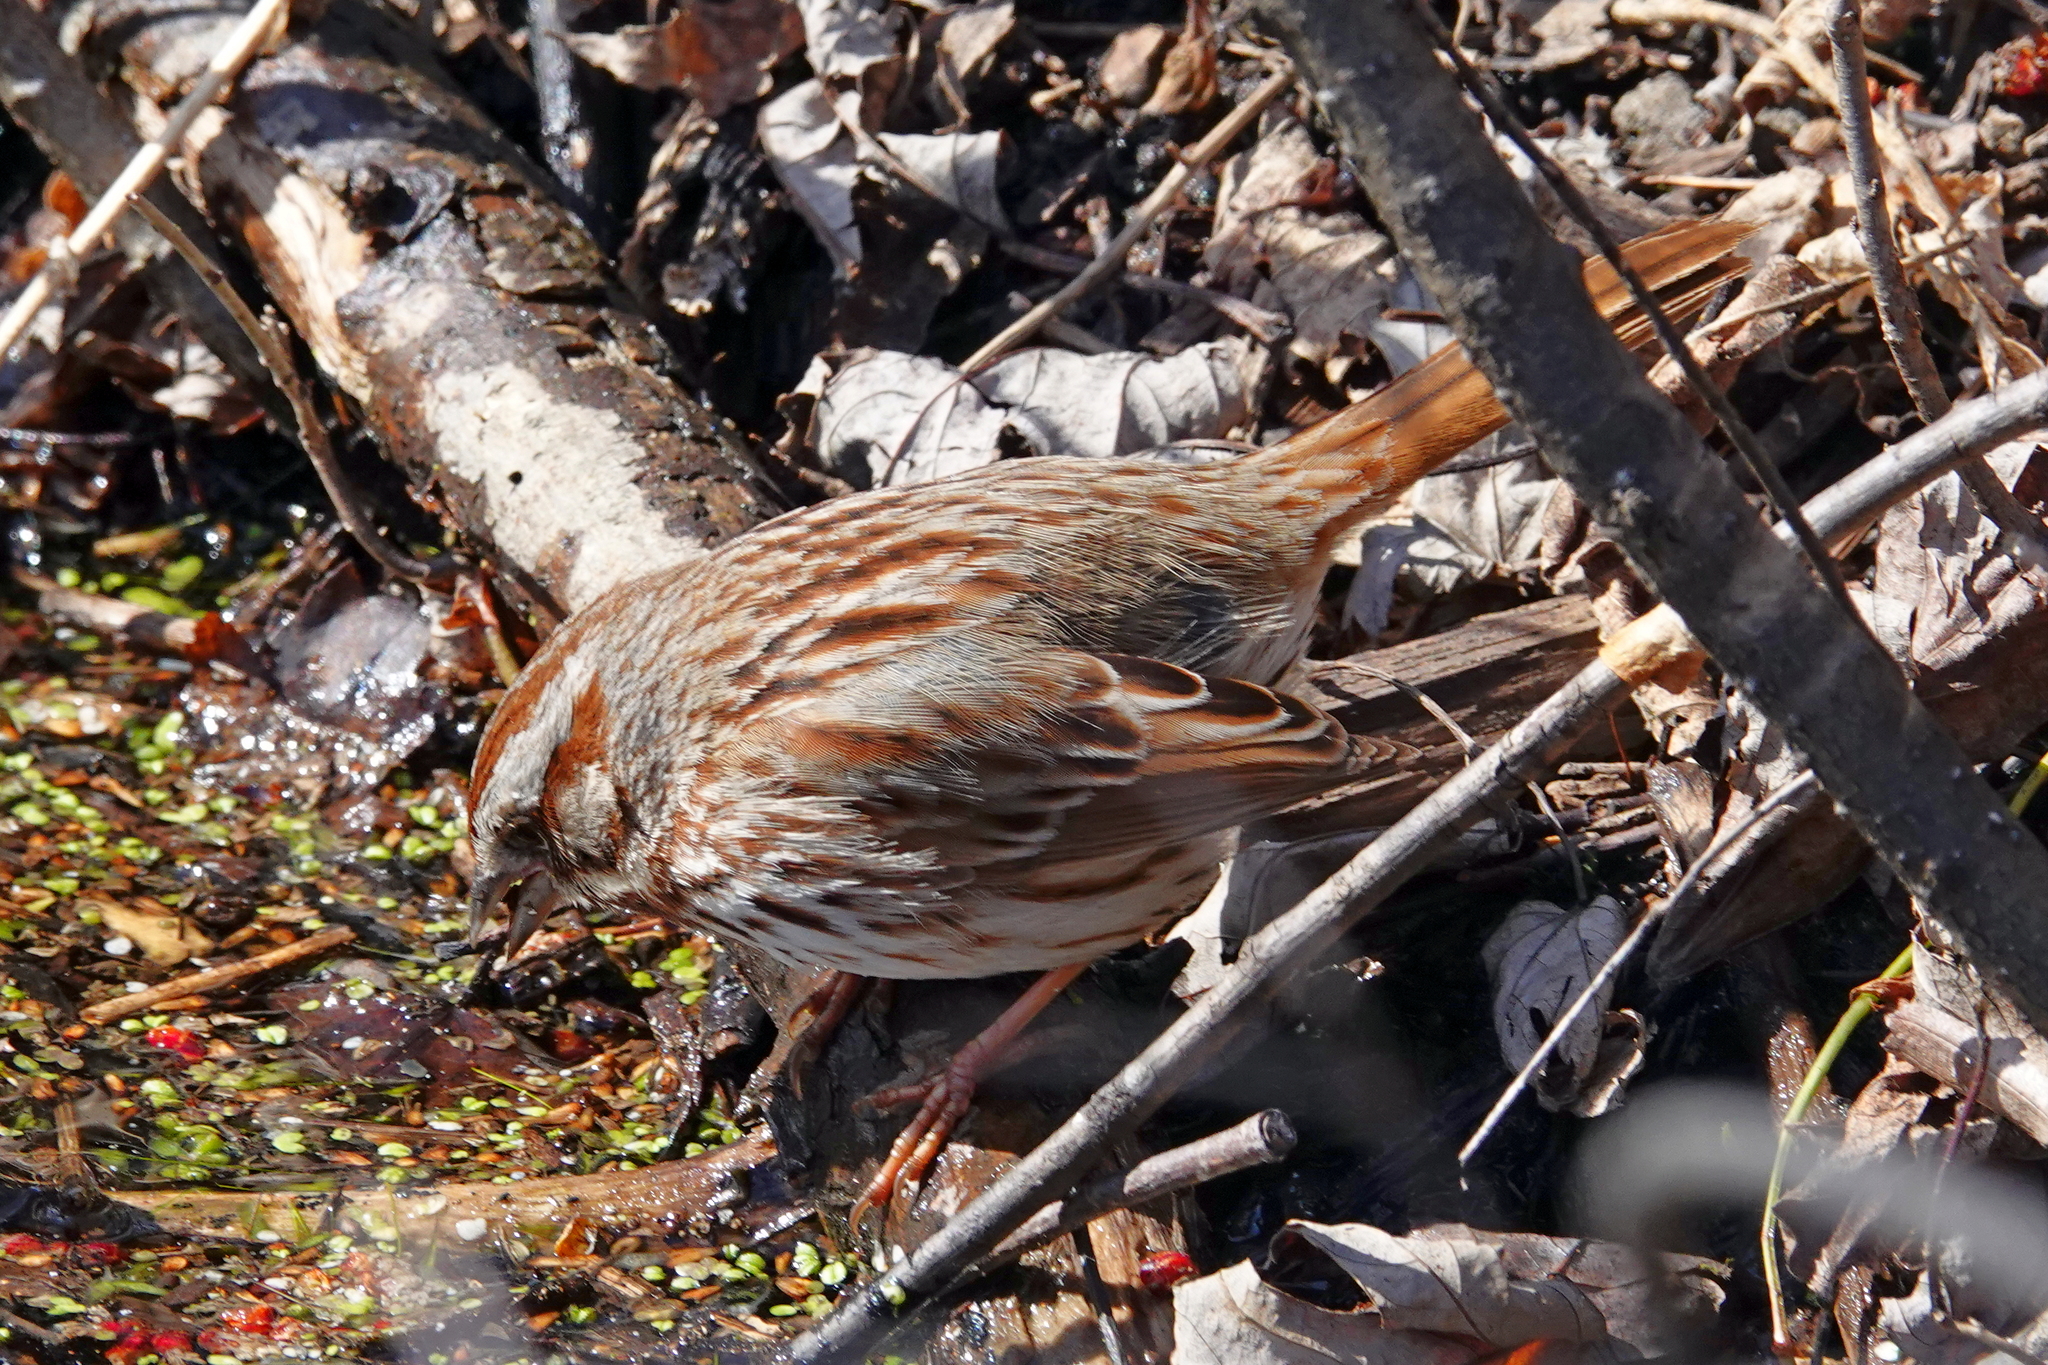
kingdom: Animalia
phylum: Chordata
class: Aves
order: Passeriformes
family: Passerellidae
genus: Melospiza
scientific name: Melospiza melodia
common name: Song sparrow
